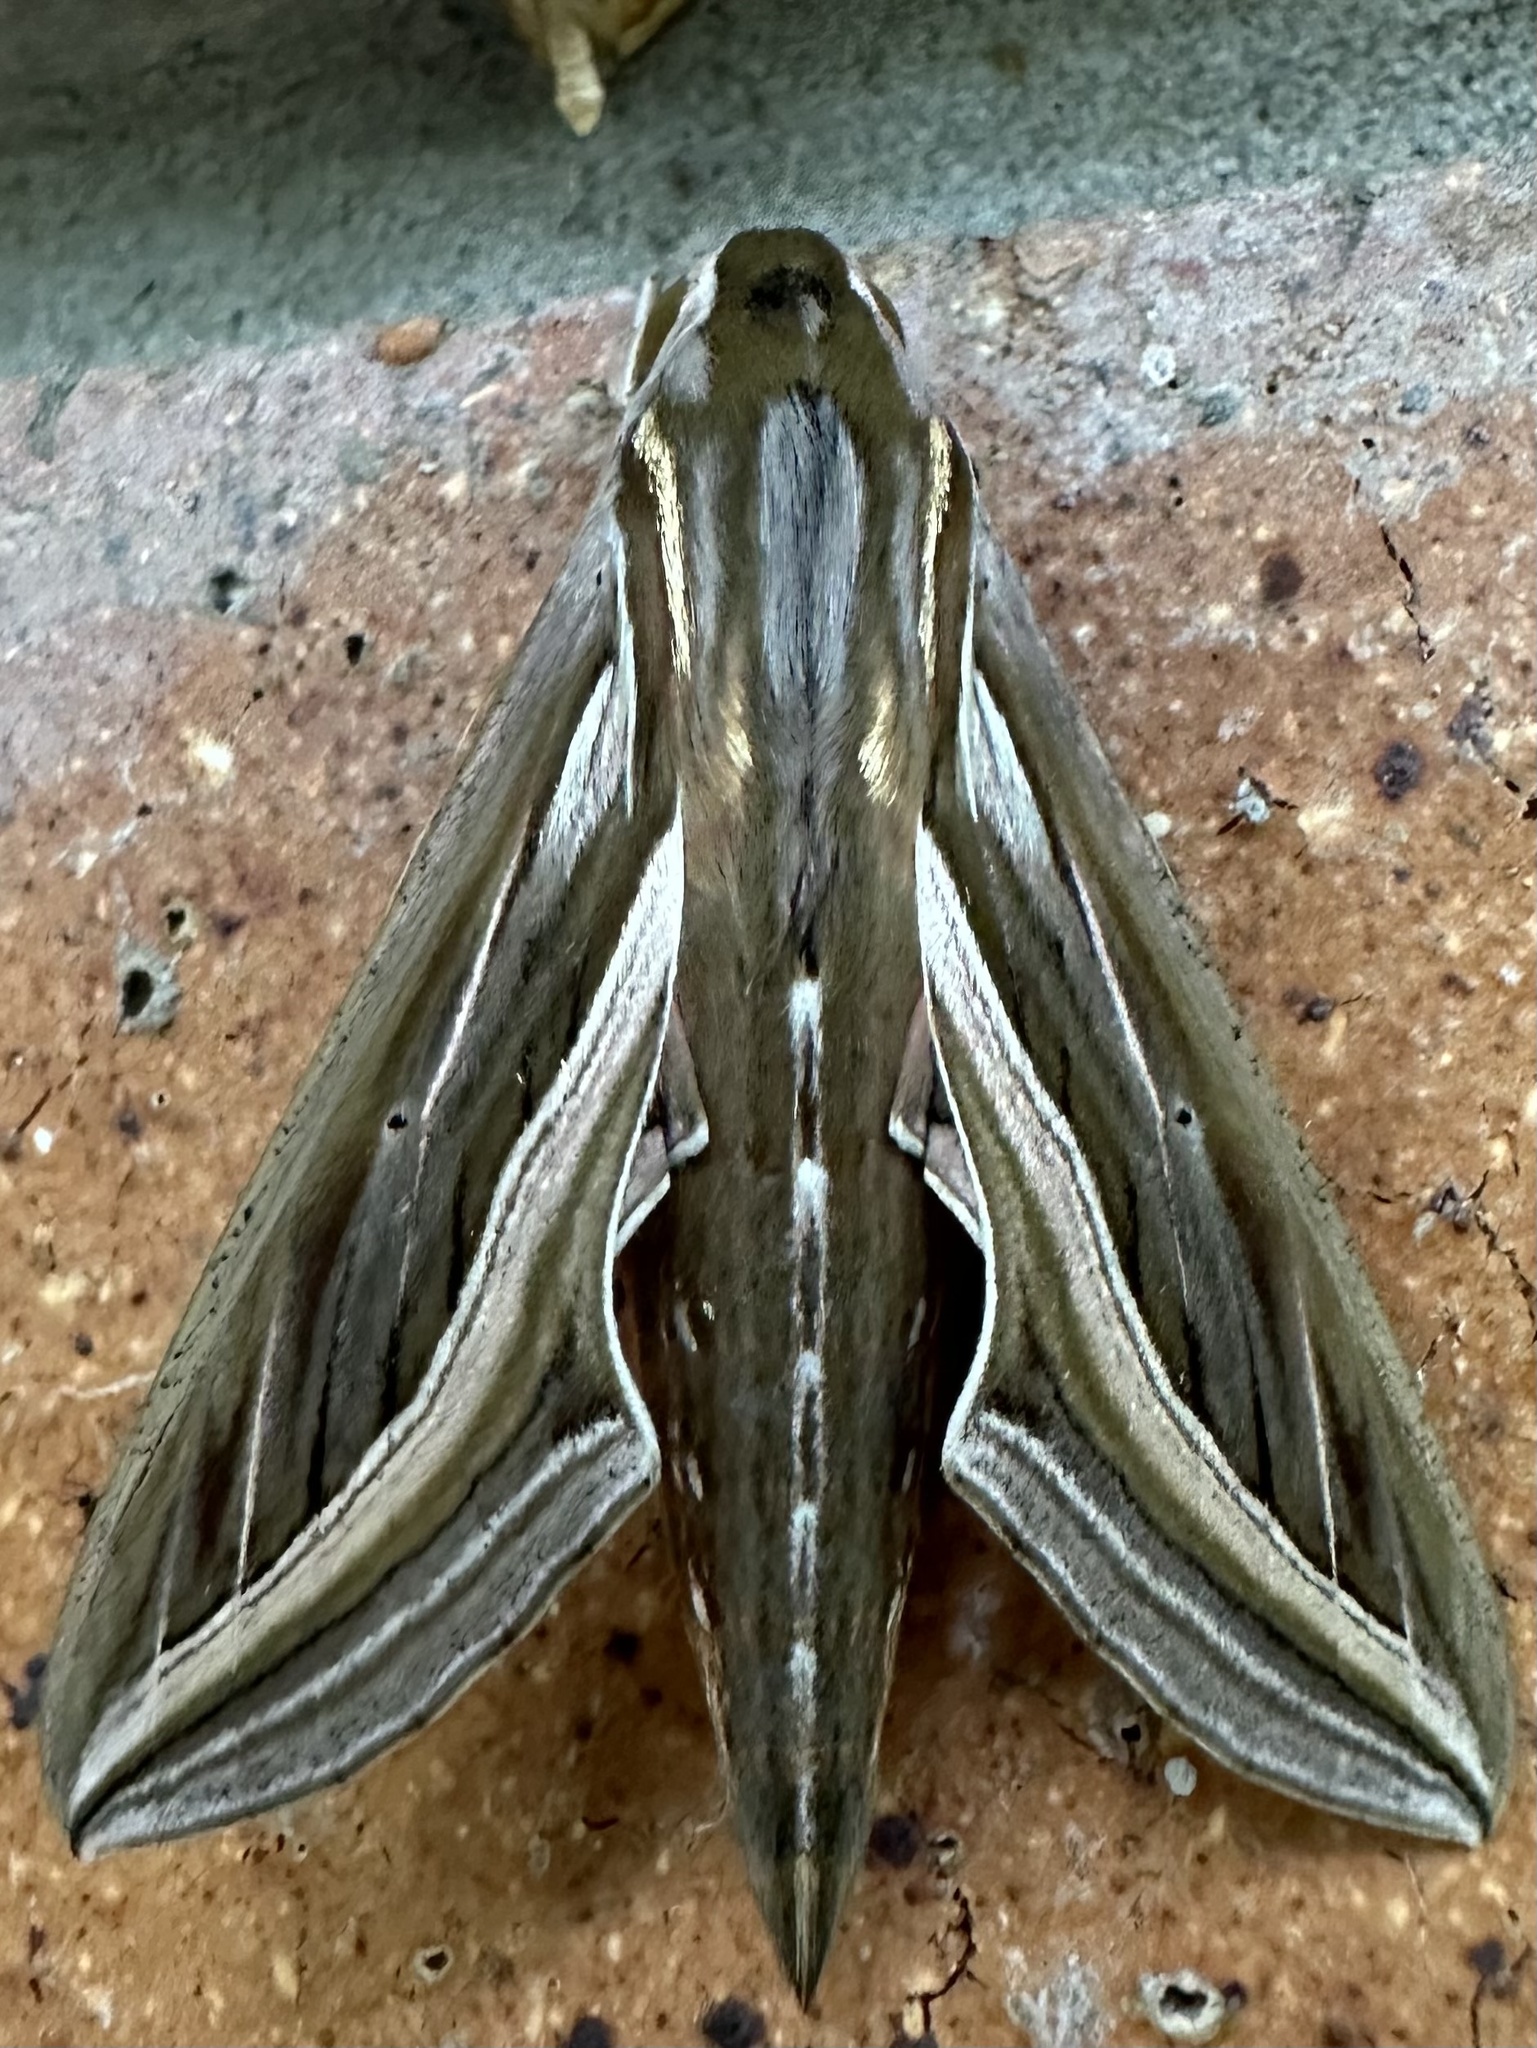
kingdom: Animalia
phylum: Arthropoda
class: Insecta
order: Lepidoptera
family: Sphingidae
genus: Hippotion
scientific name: Hippotion celerio
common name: Silver-striped hawk-moth
